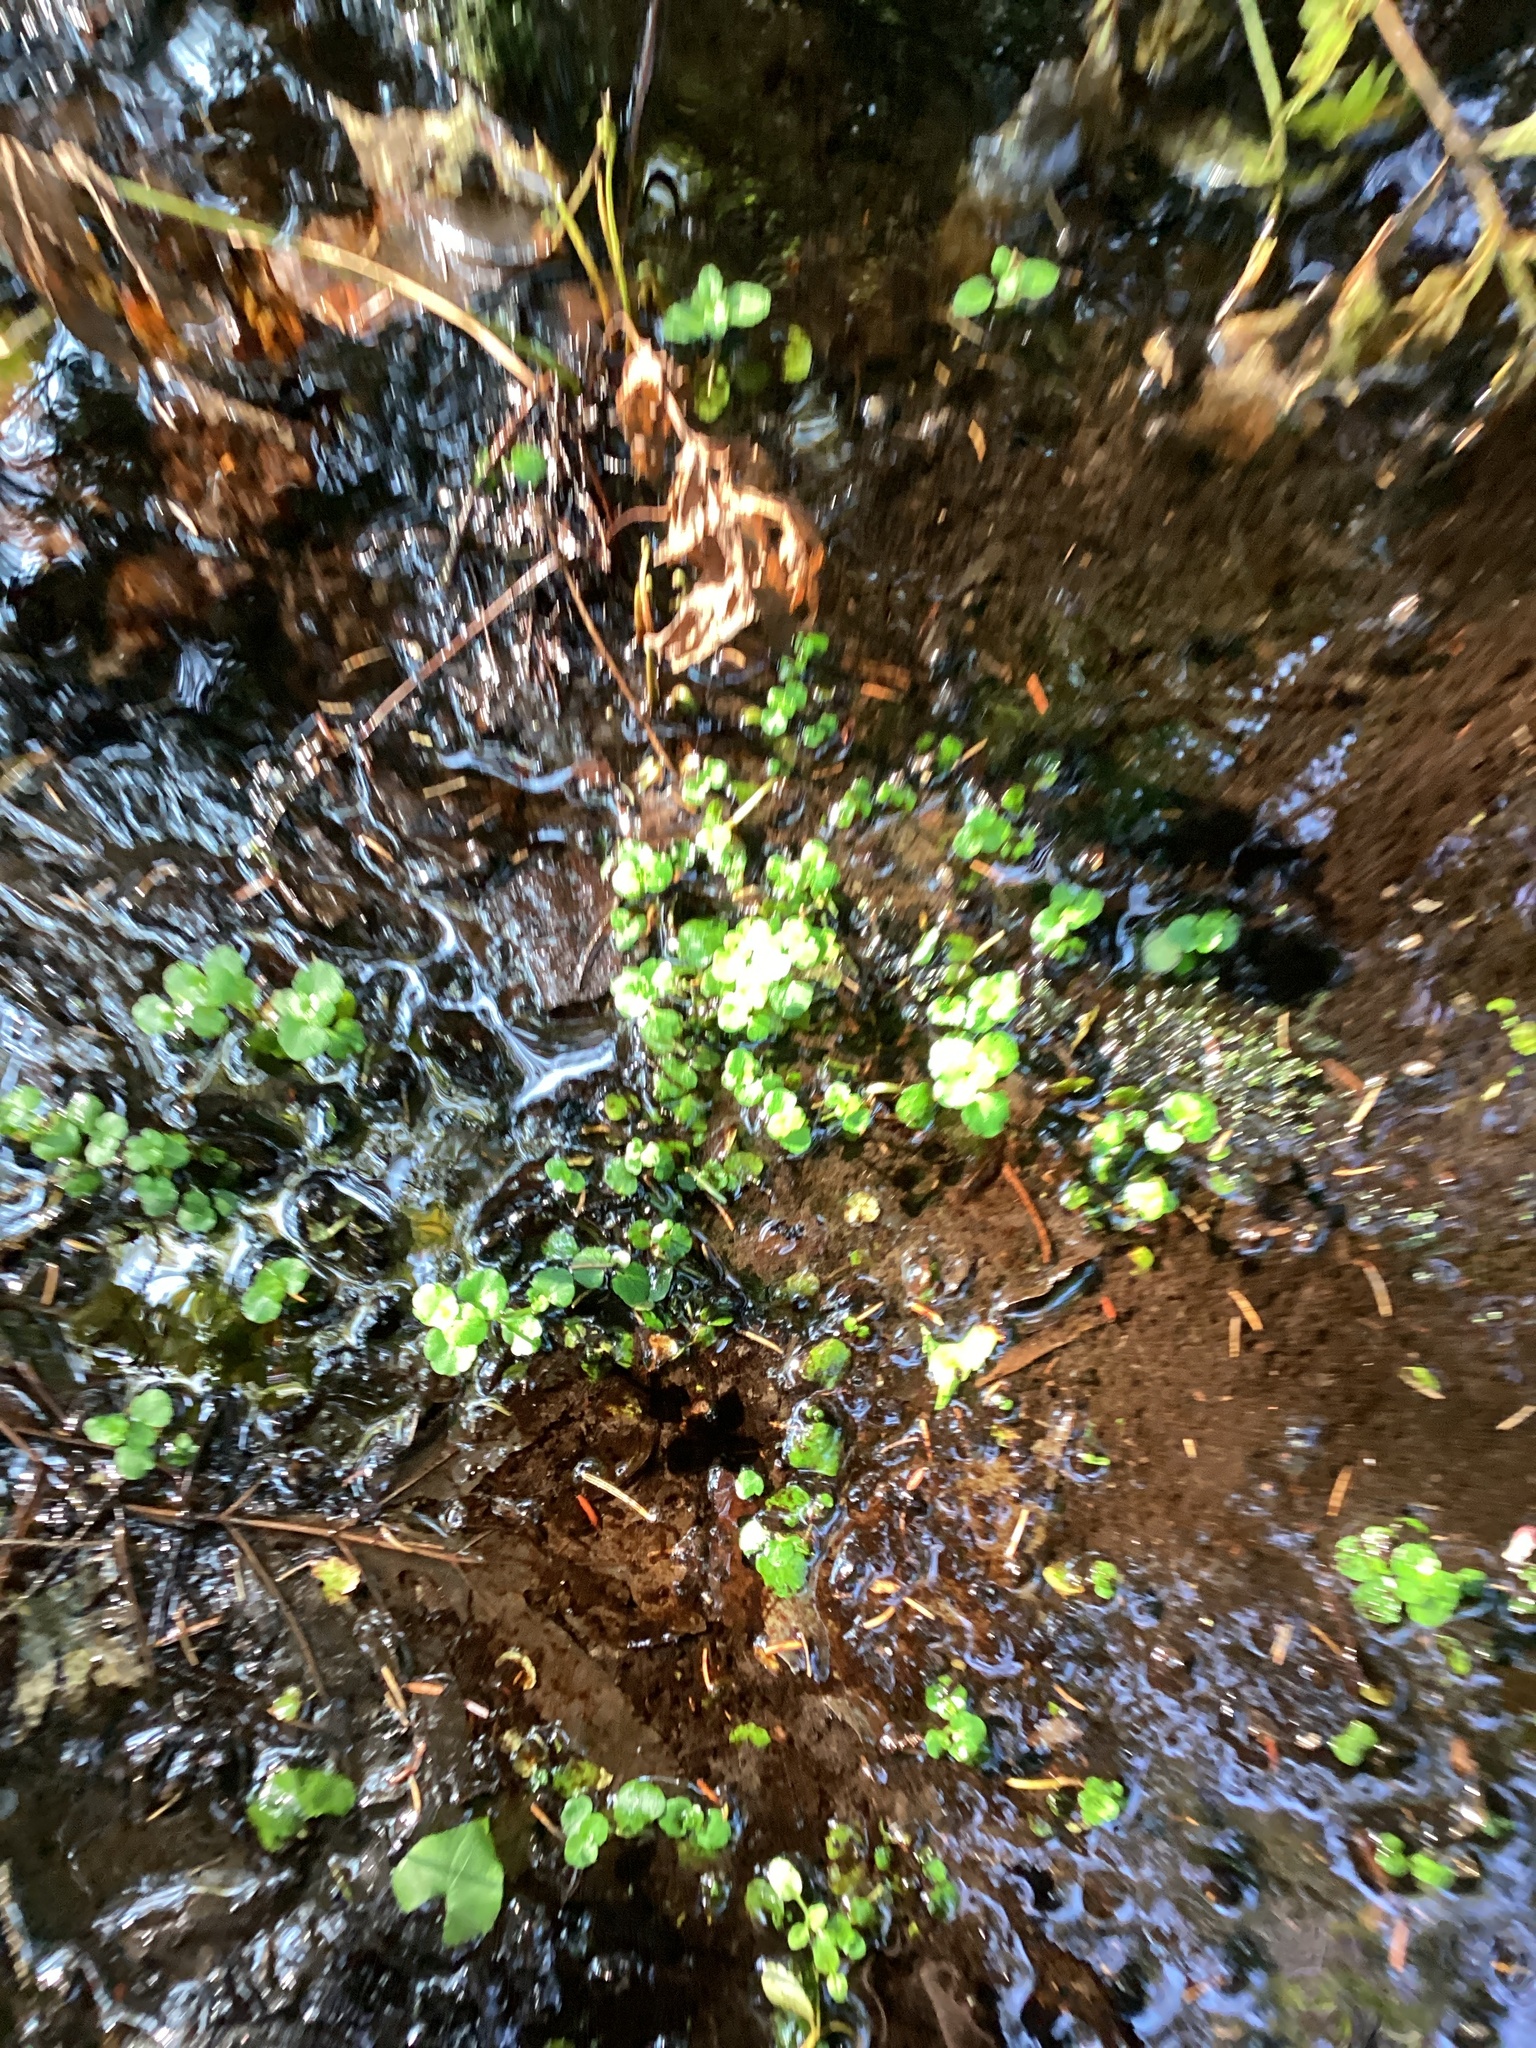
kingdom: Plantae
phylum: Tracheophyta
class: Magnoliopsida
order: Saxifragales
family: Saxifragaceae
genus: Chrysosplenium
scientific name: Chrysosplenium americanum
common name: American golden-saxifrage
